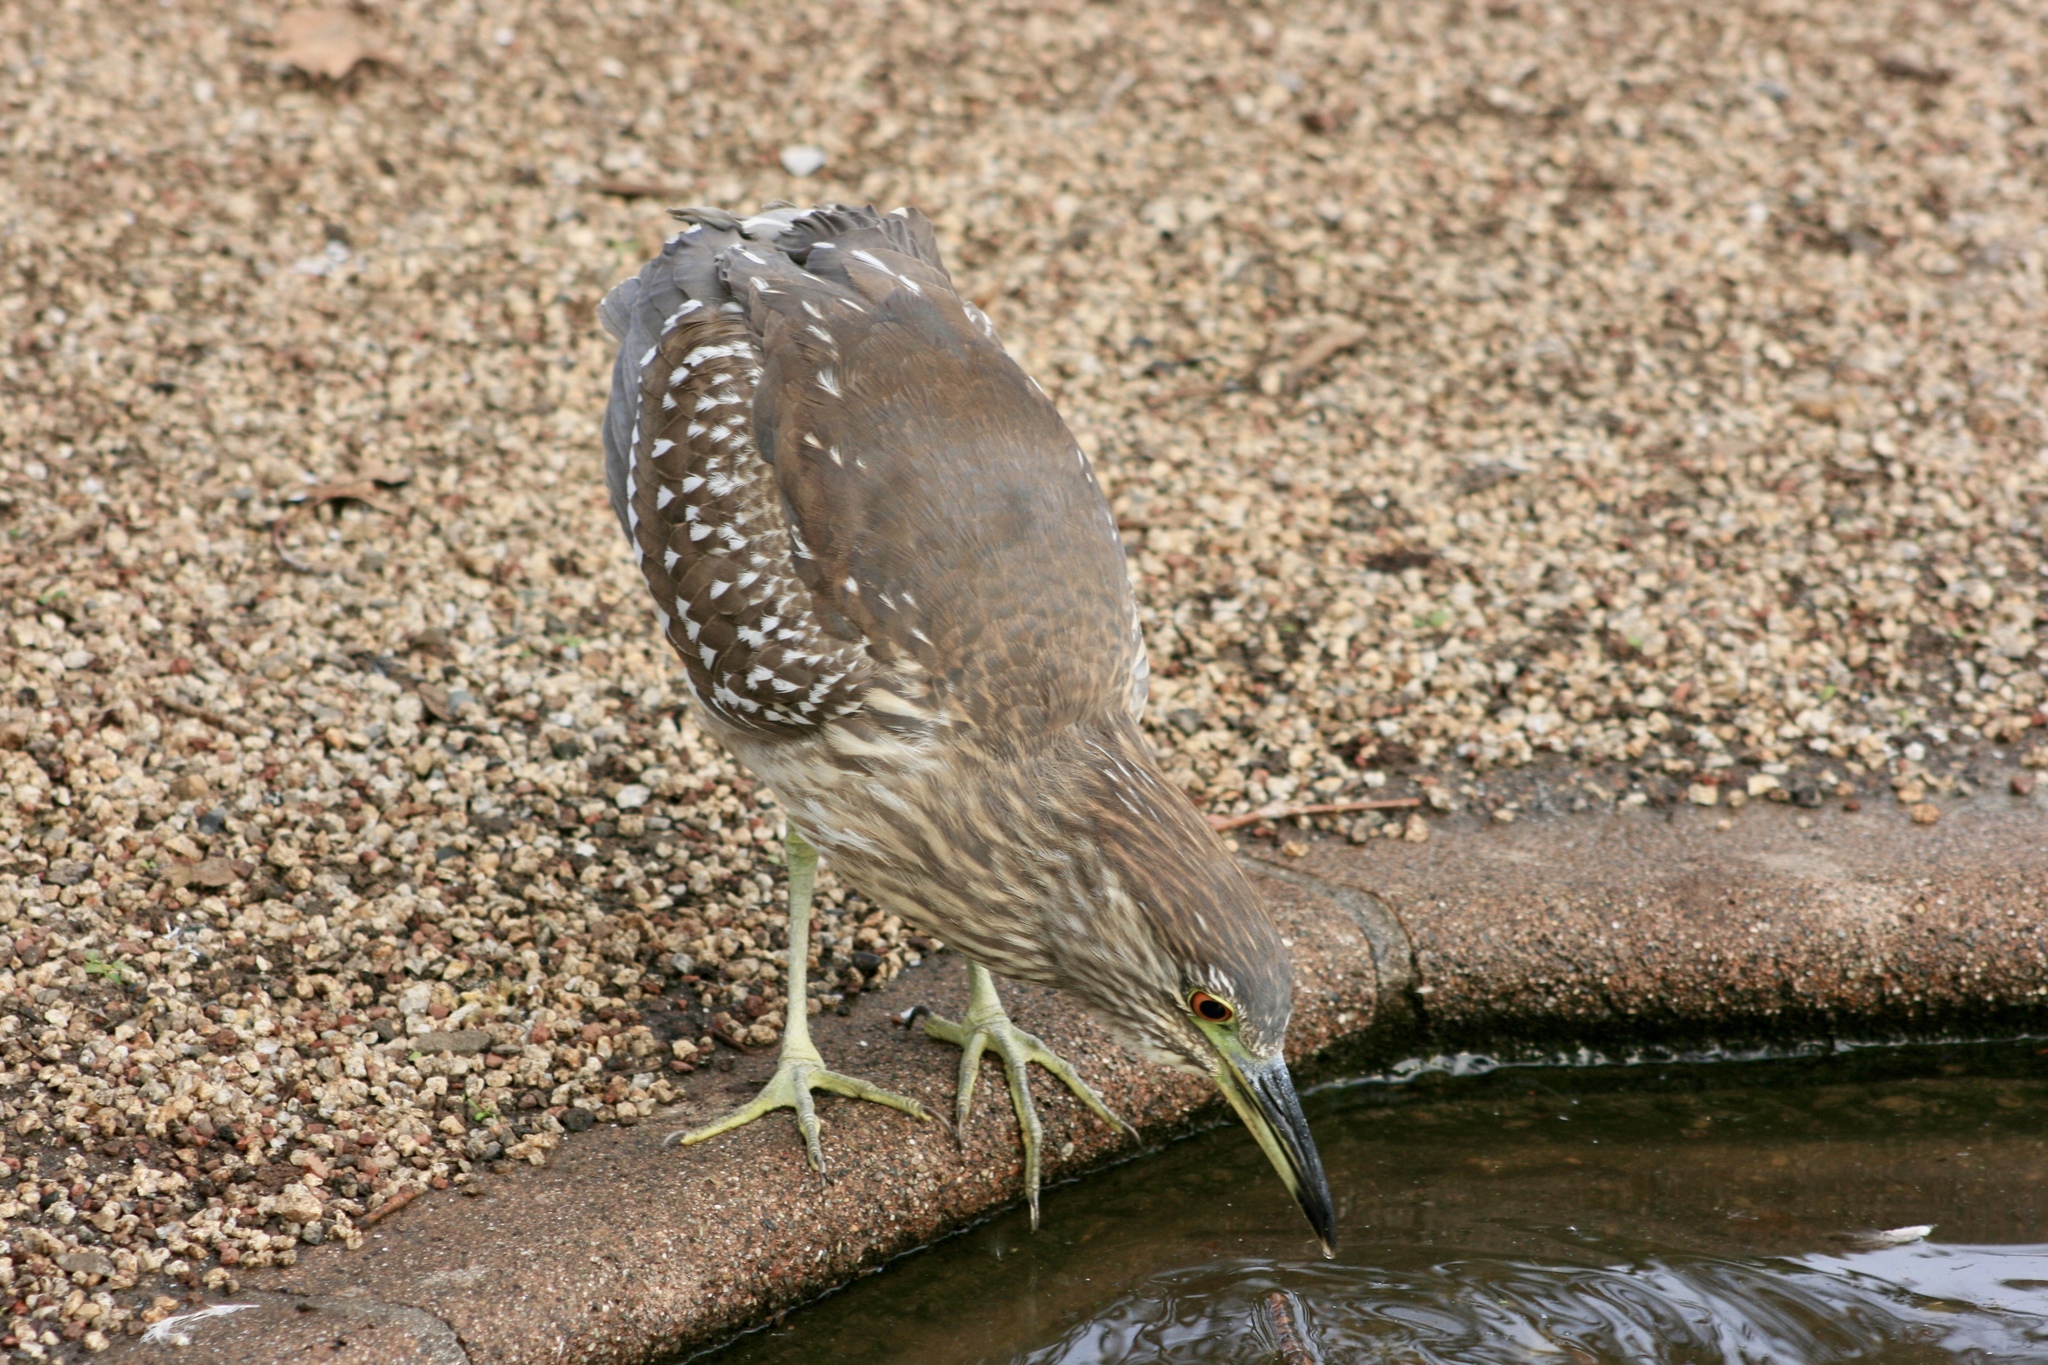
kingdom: Animalia
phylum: Chordata
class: Aves
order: Pelecaniformes
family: Ardeidae
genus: Nycticorax
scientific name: Nycticorax nycticorax
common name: Black-crowned night heron
